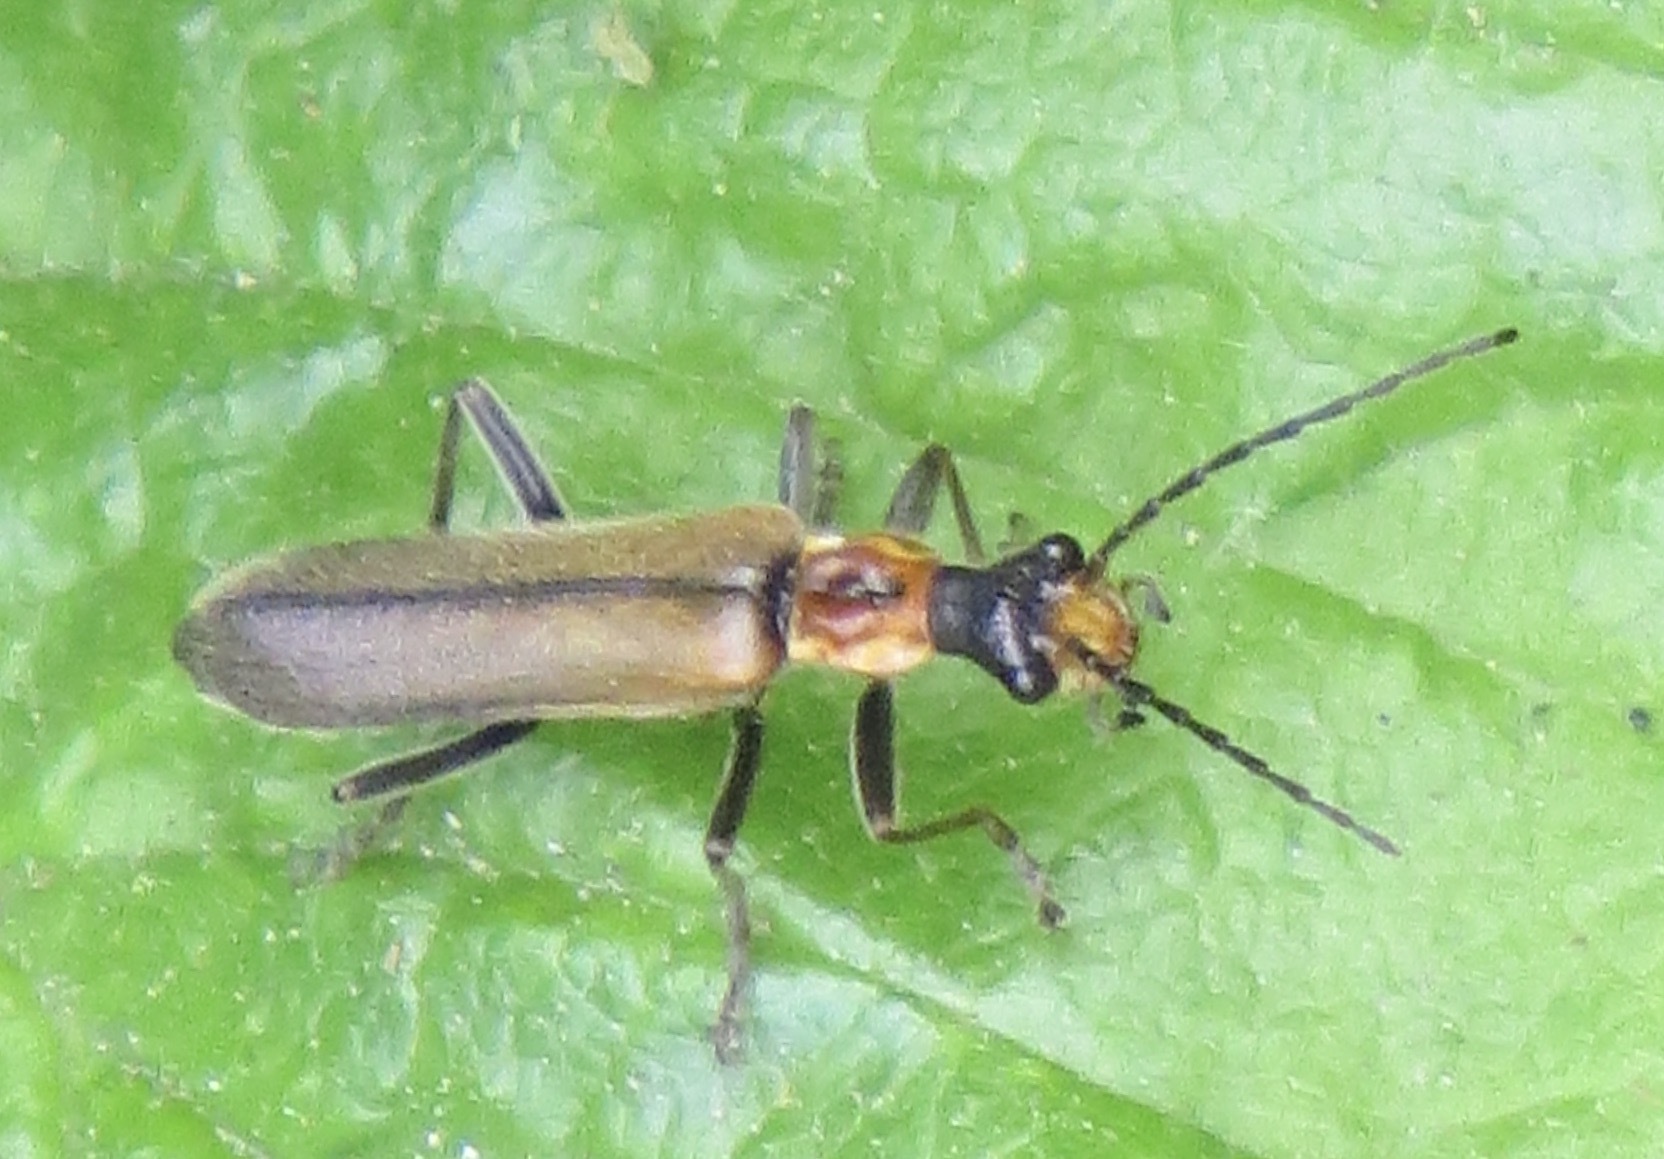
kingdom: Animalia
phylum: Arthropoda
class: Insecta
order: Coleoptera
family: Cantharidae
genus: Dichelotarsus
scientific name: Dichelotarsus cavicollis
